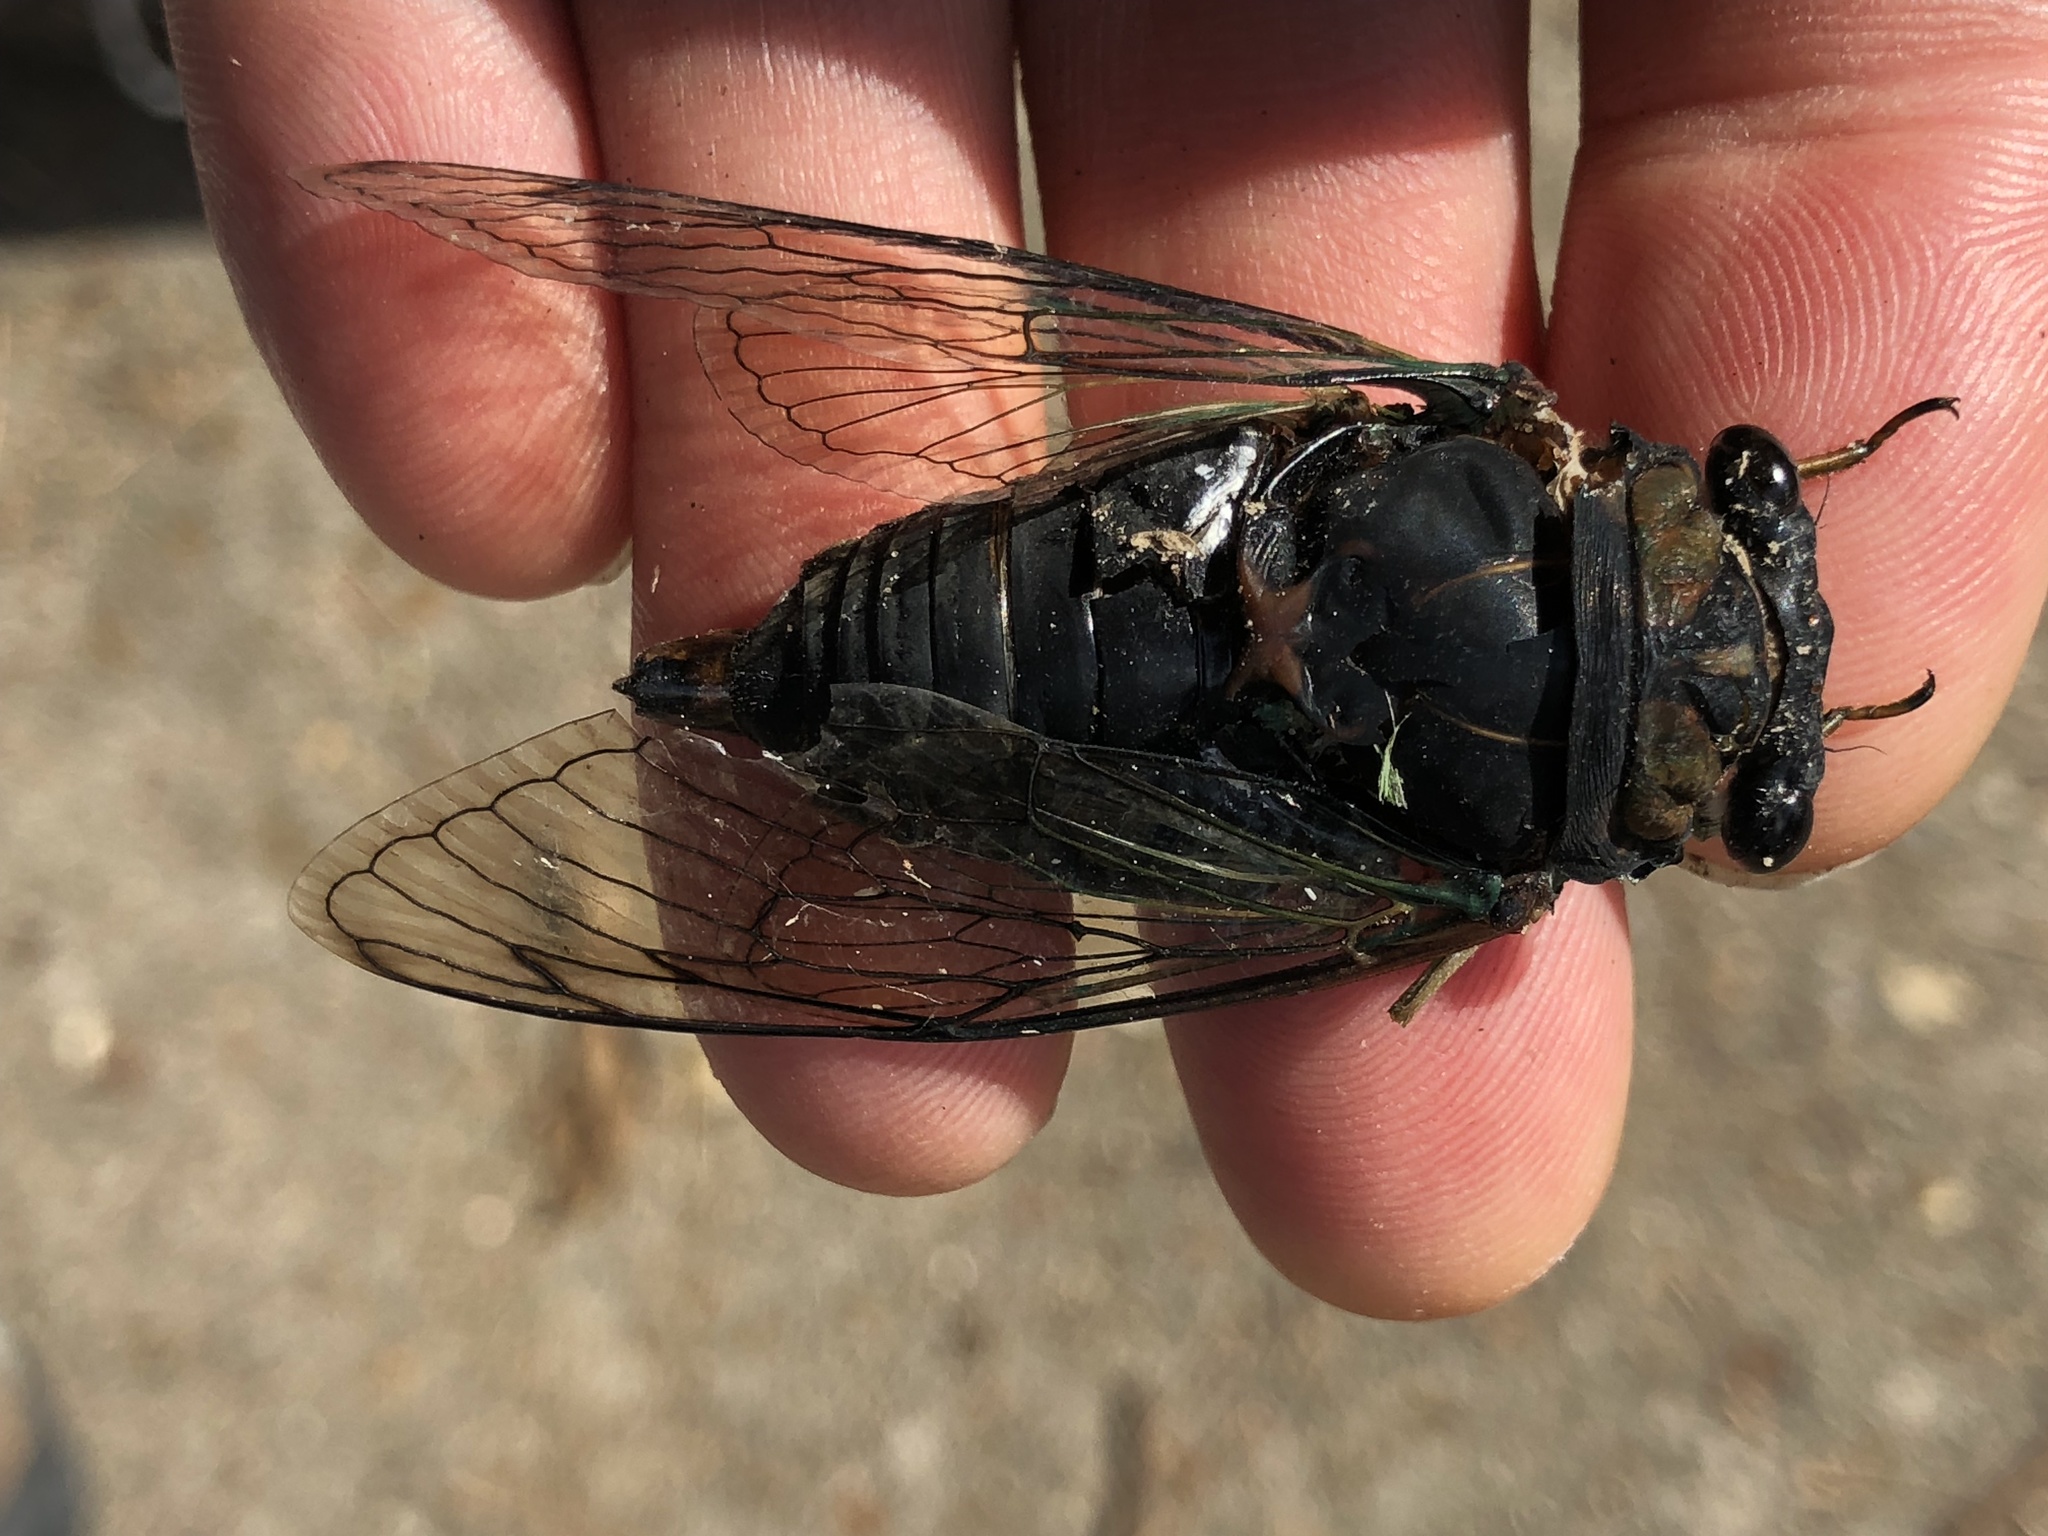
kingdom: Animalia
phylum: Arthropoda
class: Insecta
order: Hemiptera
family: Cicadidae
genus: Neotibicen
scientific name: Neotibicen tibicen
